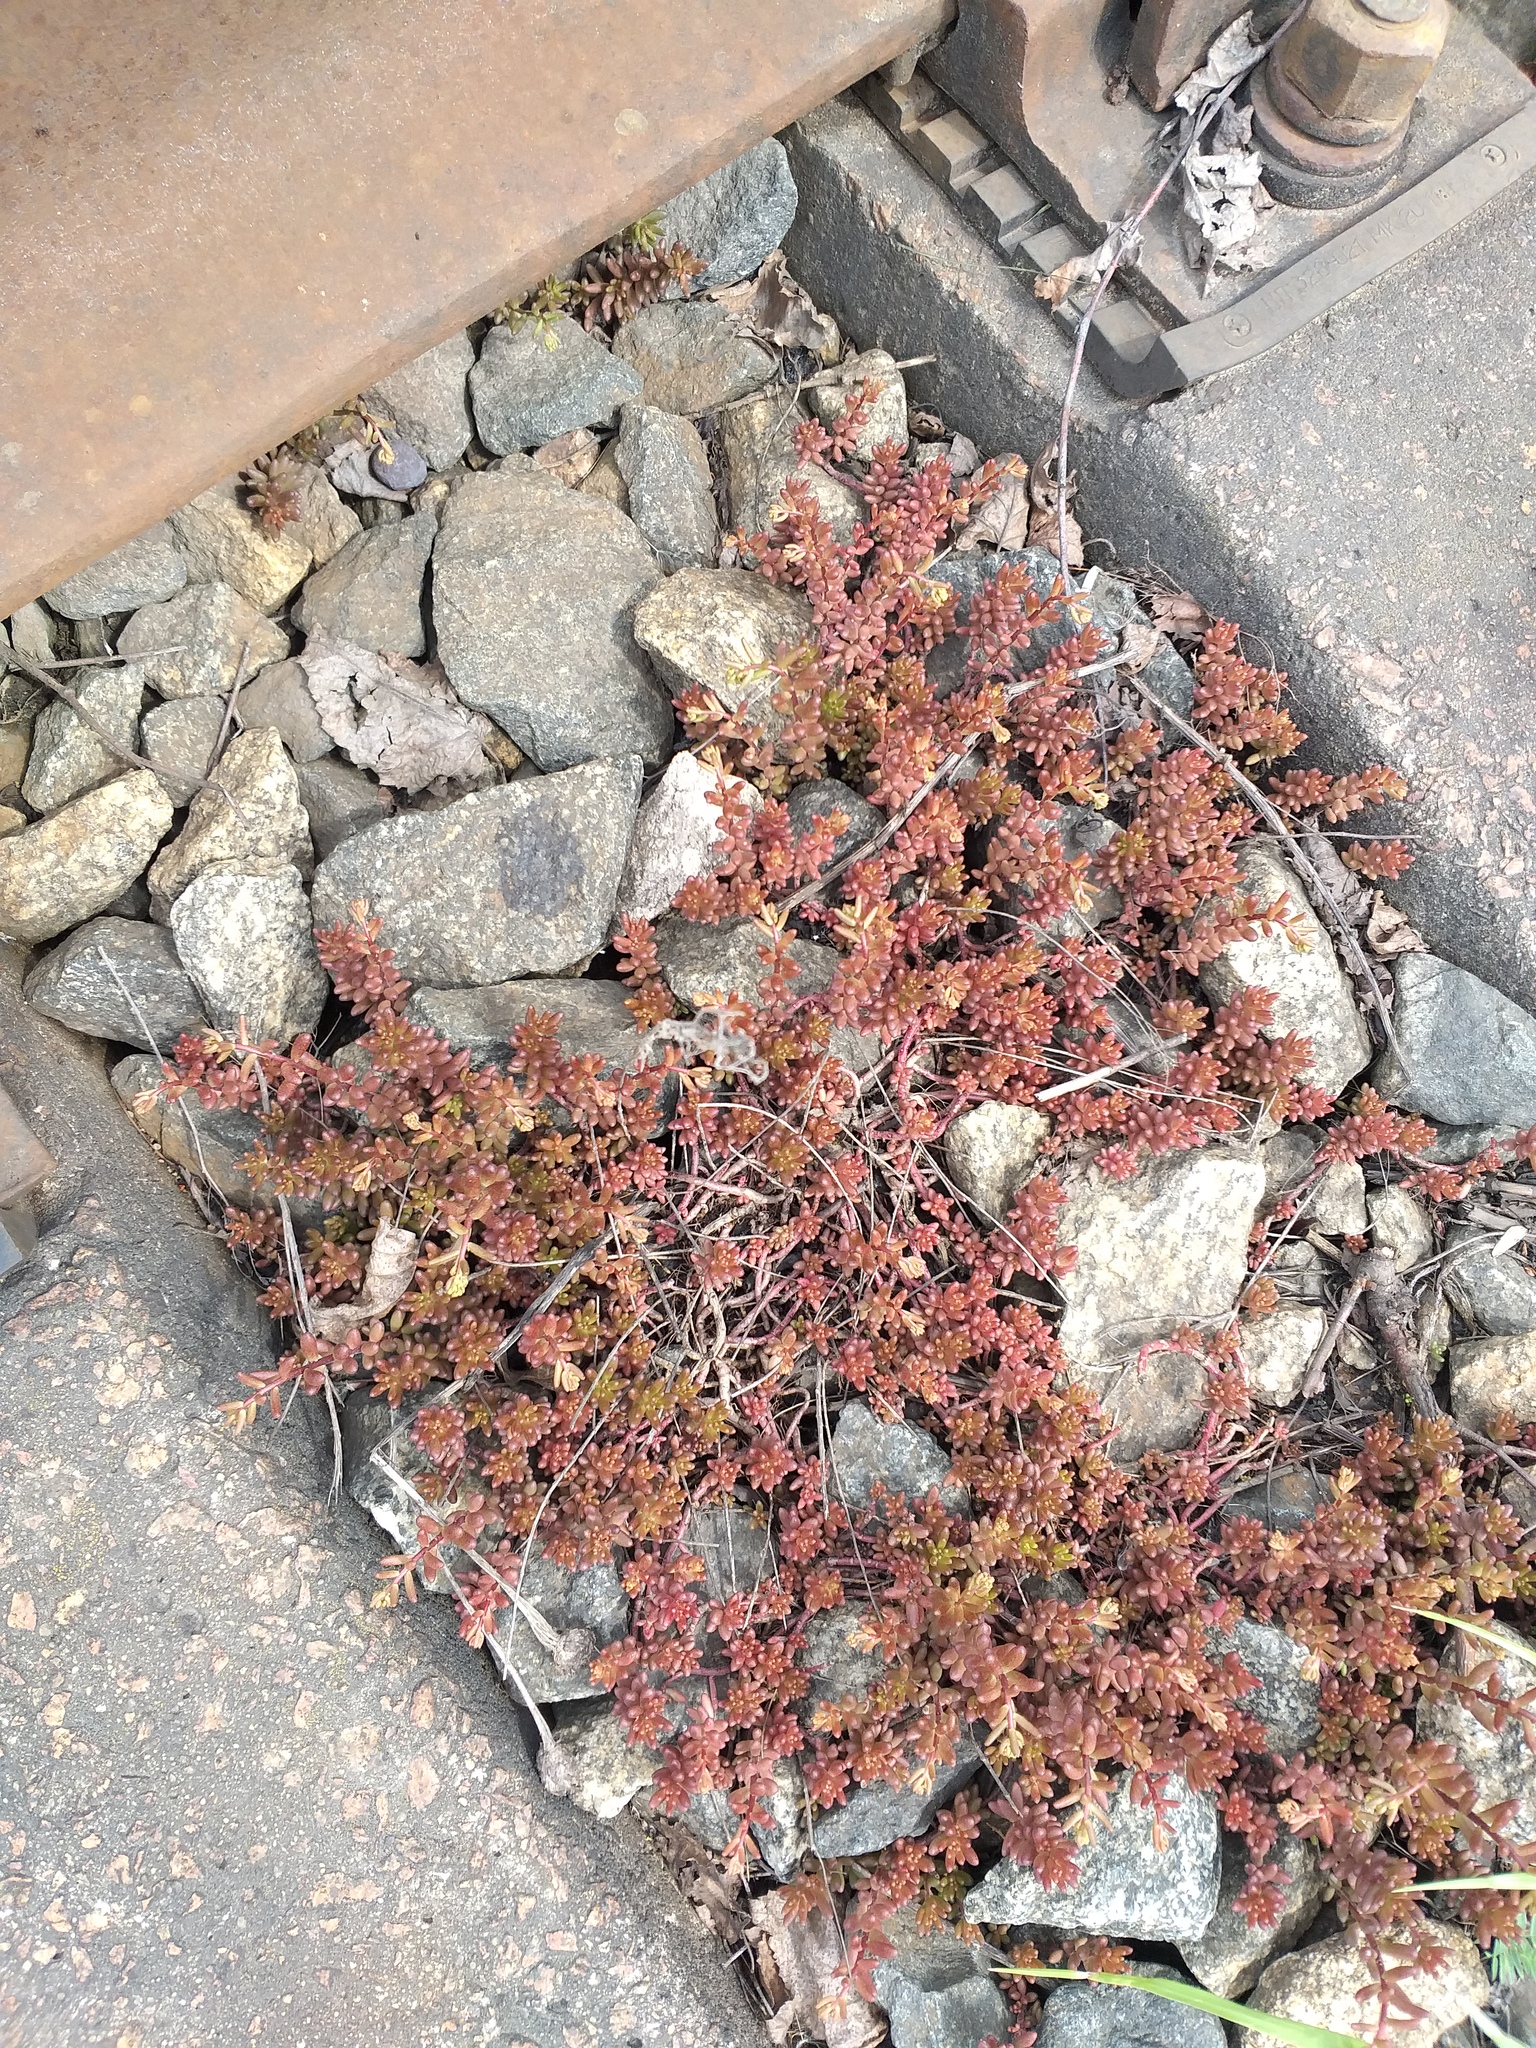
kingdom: Plantae
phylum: Tracheophyta
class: Magnoliopsida
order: Saxifragales
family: Crassulaceae
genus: Sedum
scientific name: Sedum album
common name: White stonecrop
